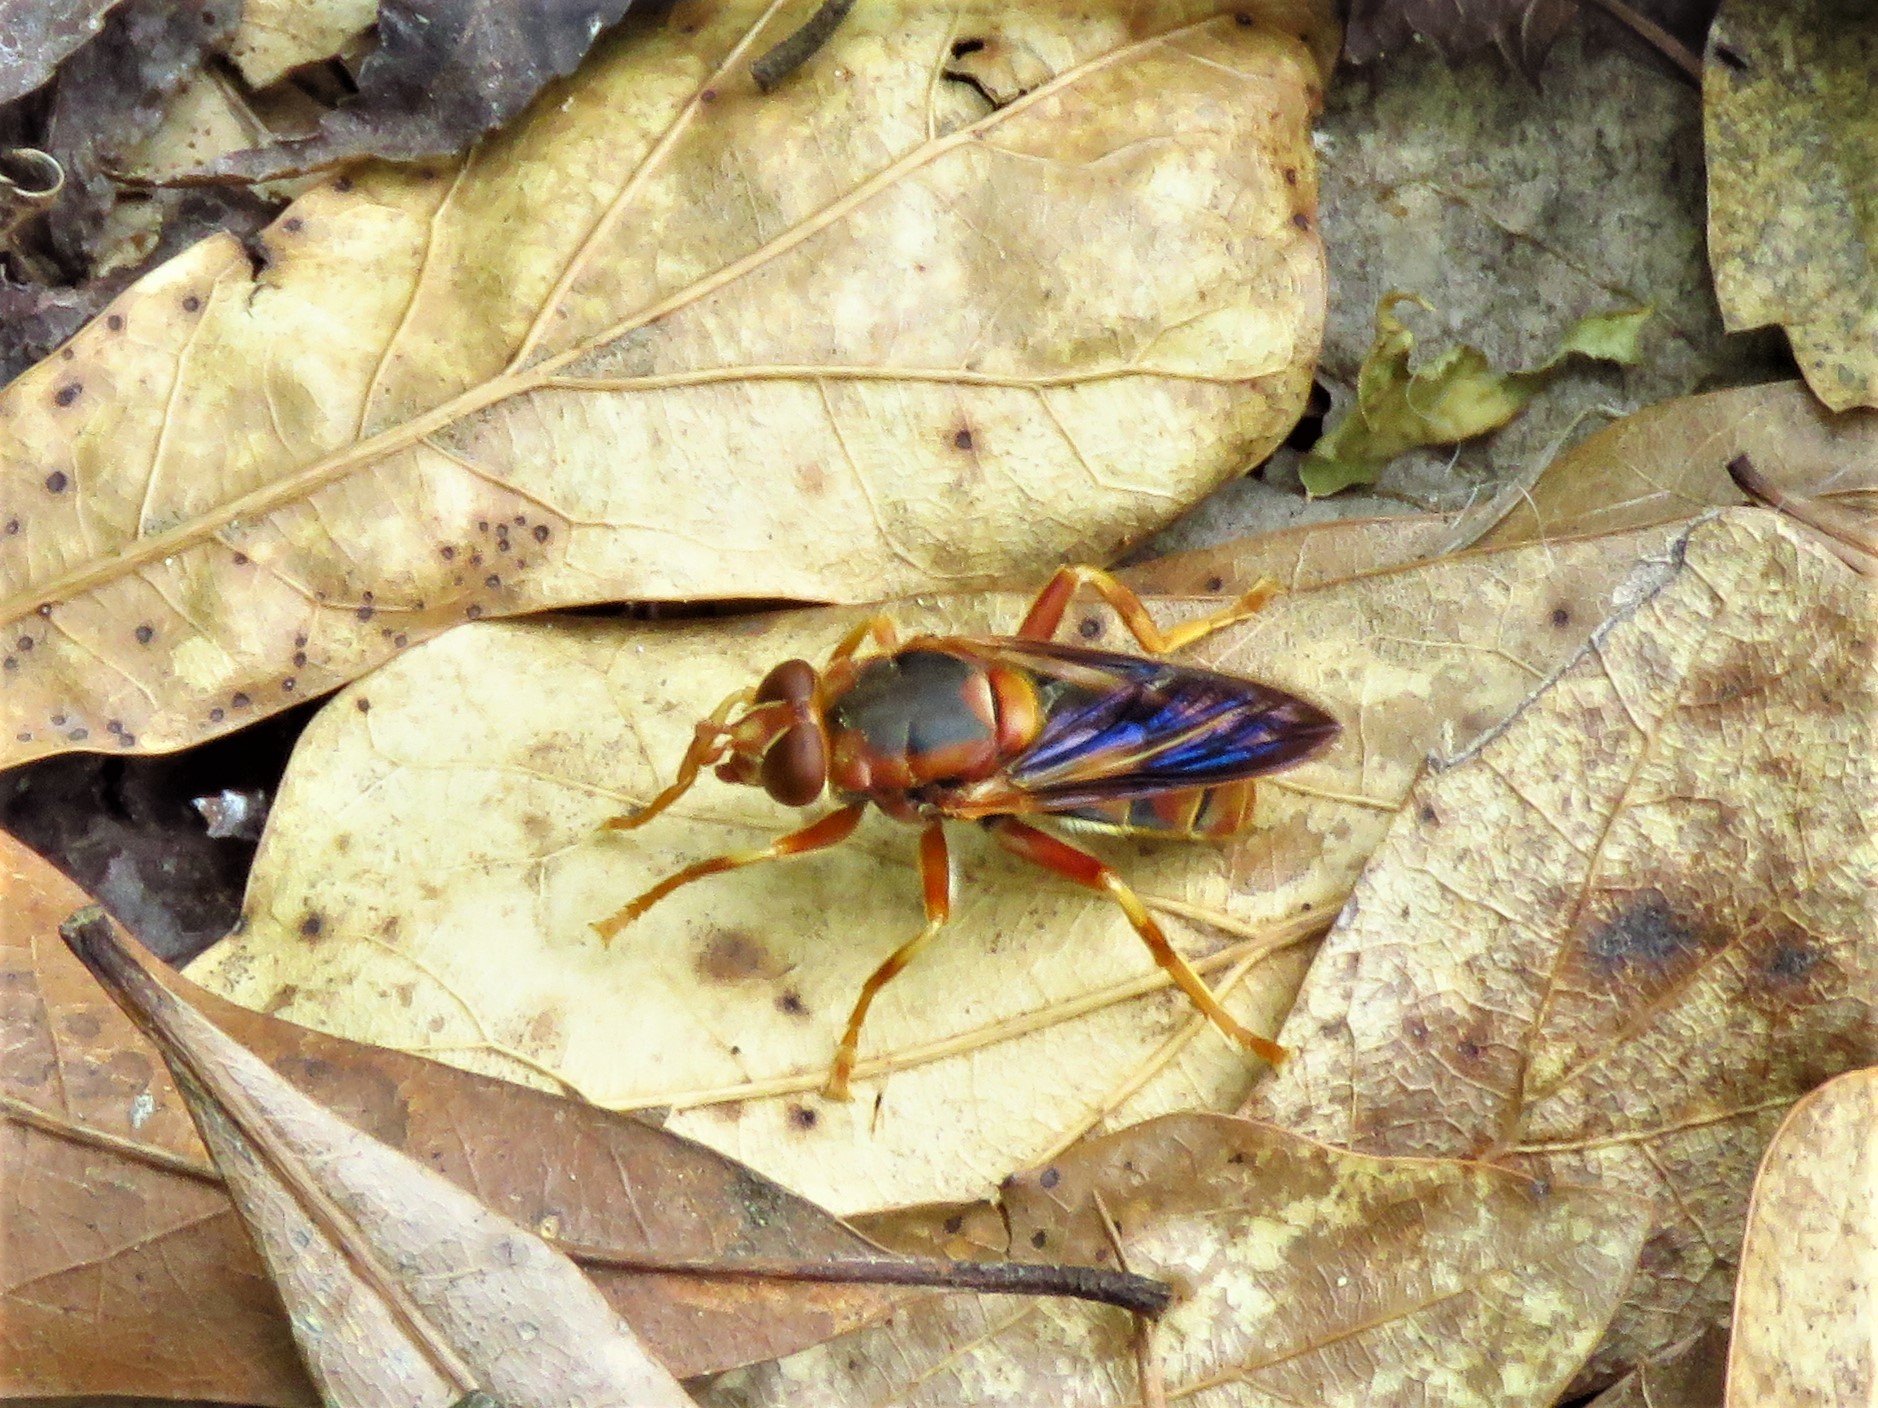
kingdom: Animalia
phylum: Arthropoda
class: Insecta
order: Diptera
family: Syrphidae
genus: Teuchocnemis
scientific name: Teuchocnemis bacuntius
